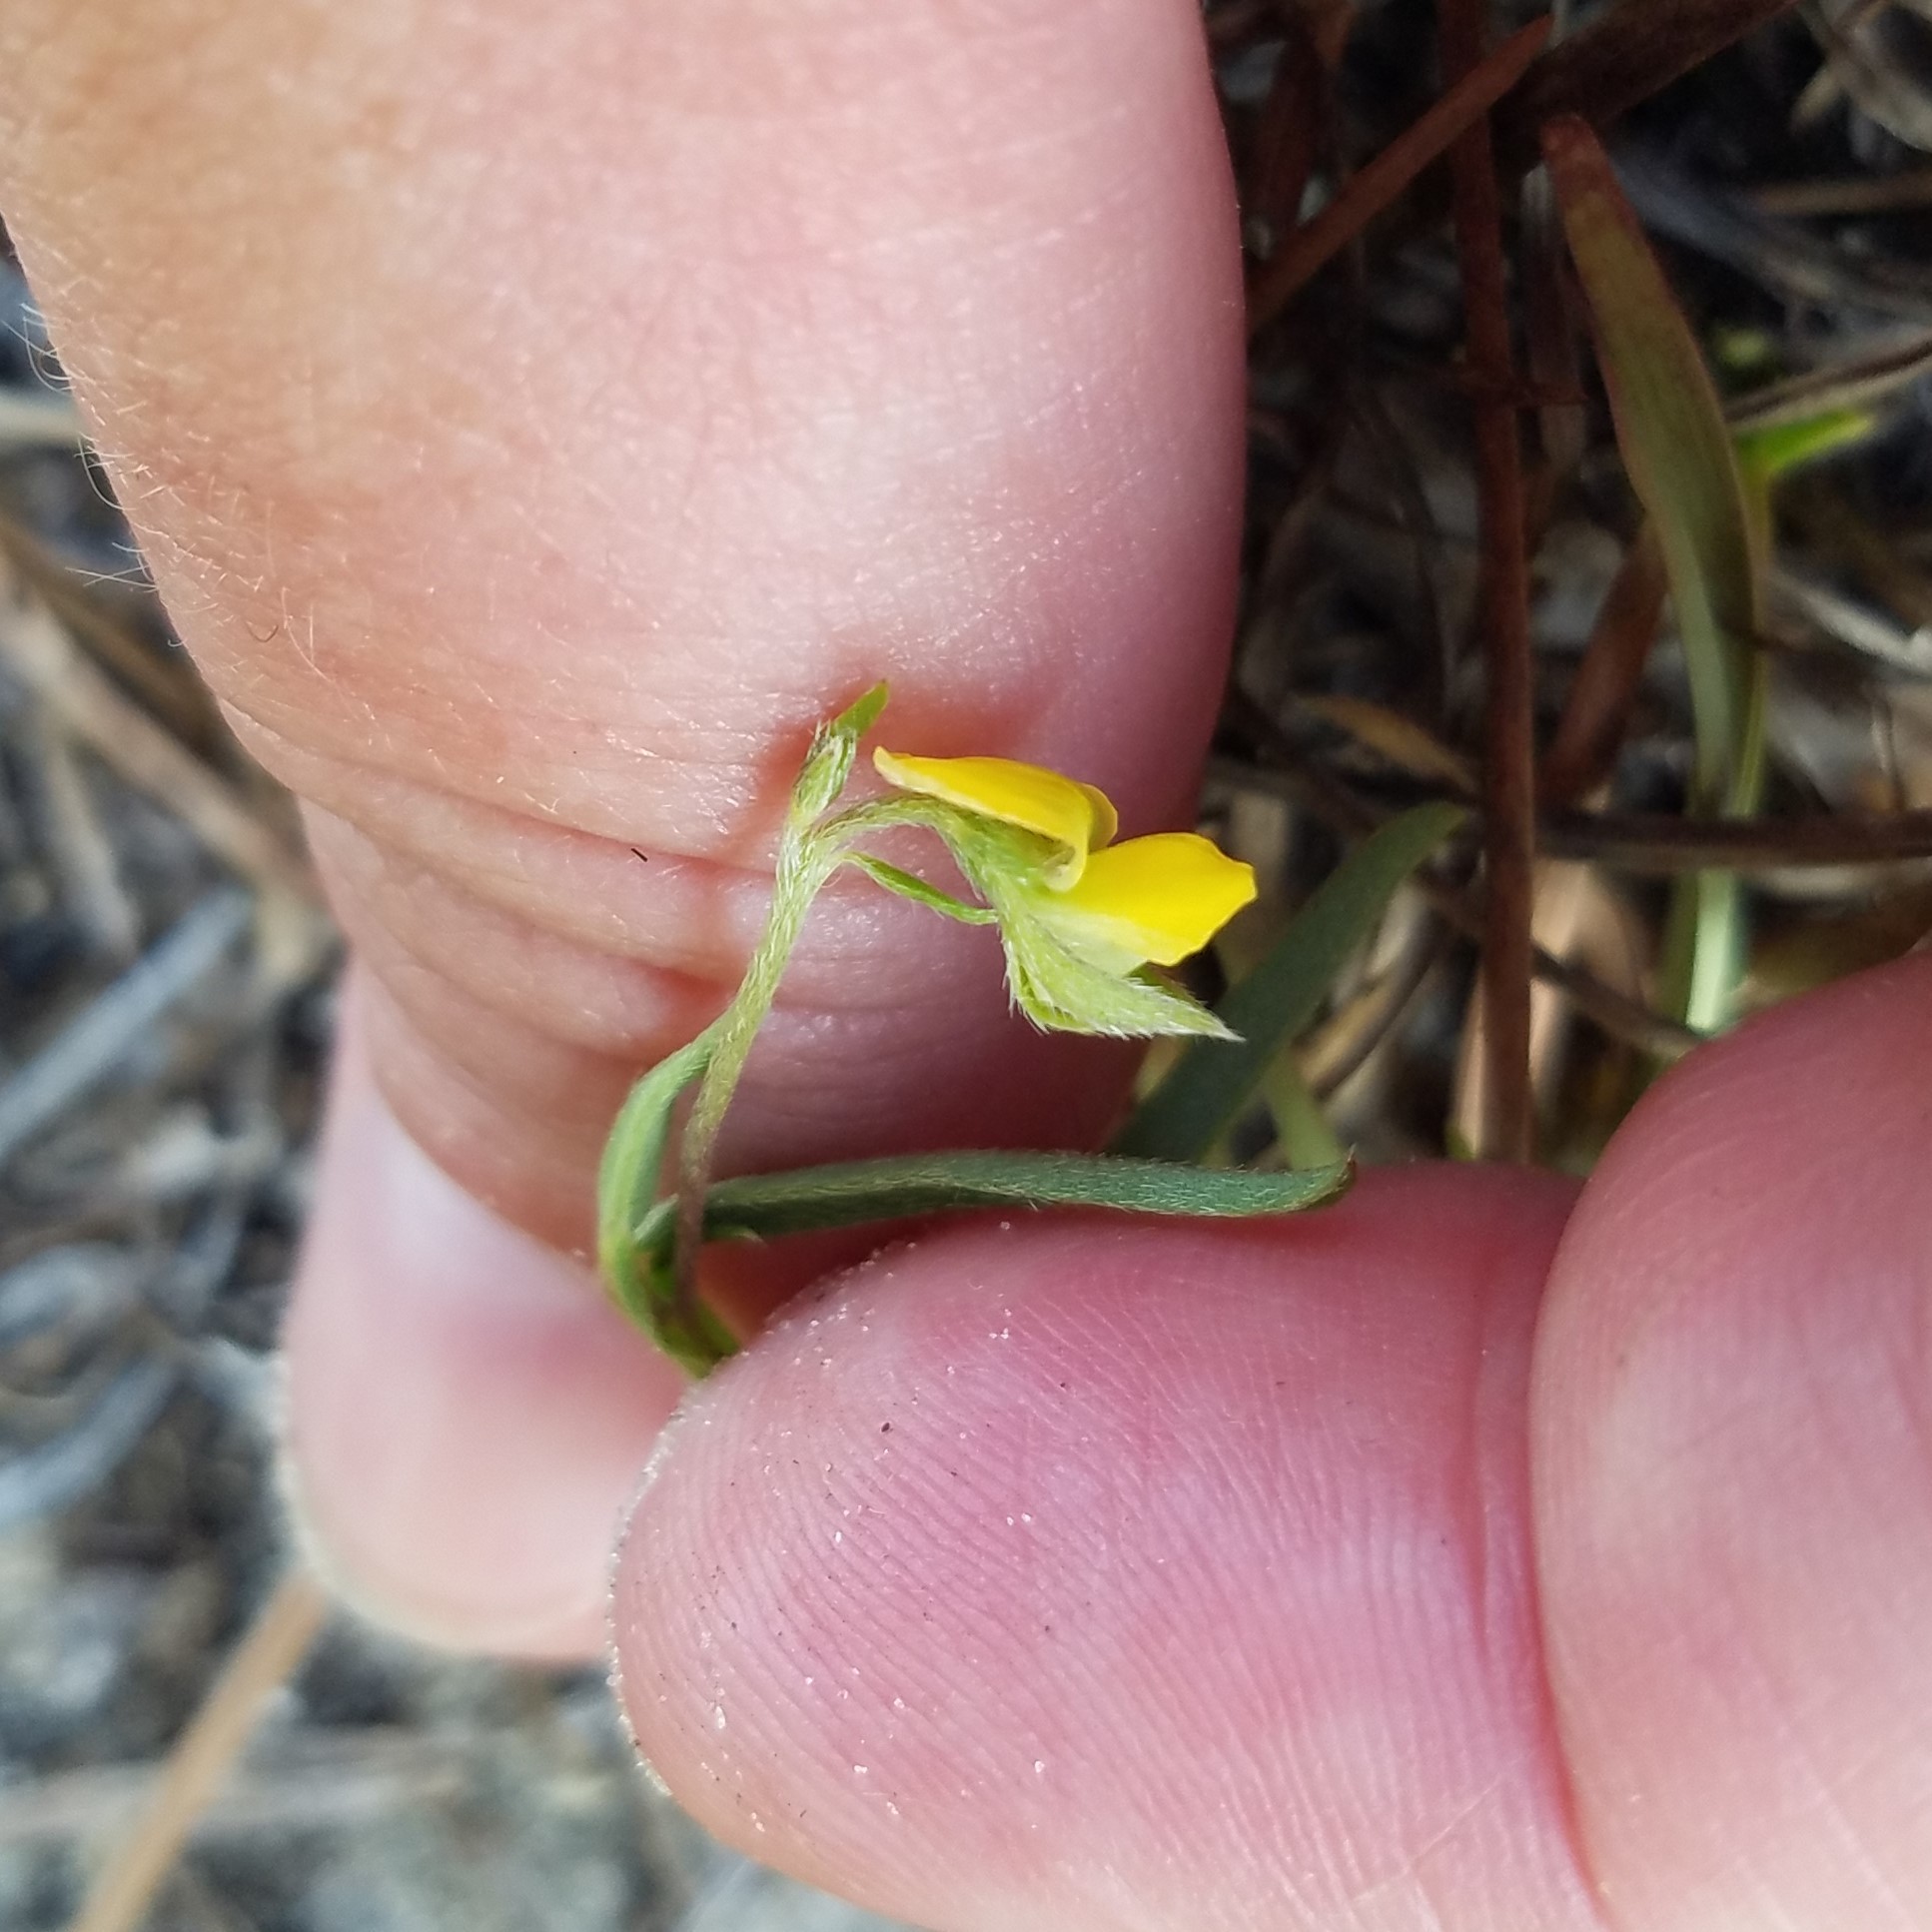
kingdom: Plantae
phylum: Tracheophyta
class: Magnoliopsida
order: Fabales
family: Fabaceae
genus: Crotalaria
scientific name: Crotalaria rotundifolia
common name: Prostrate rattlebox
